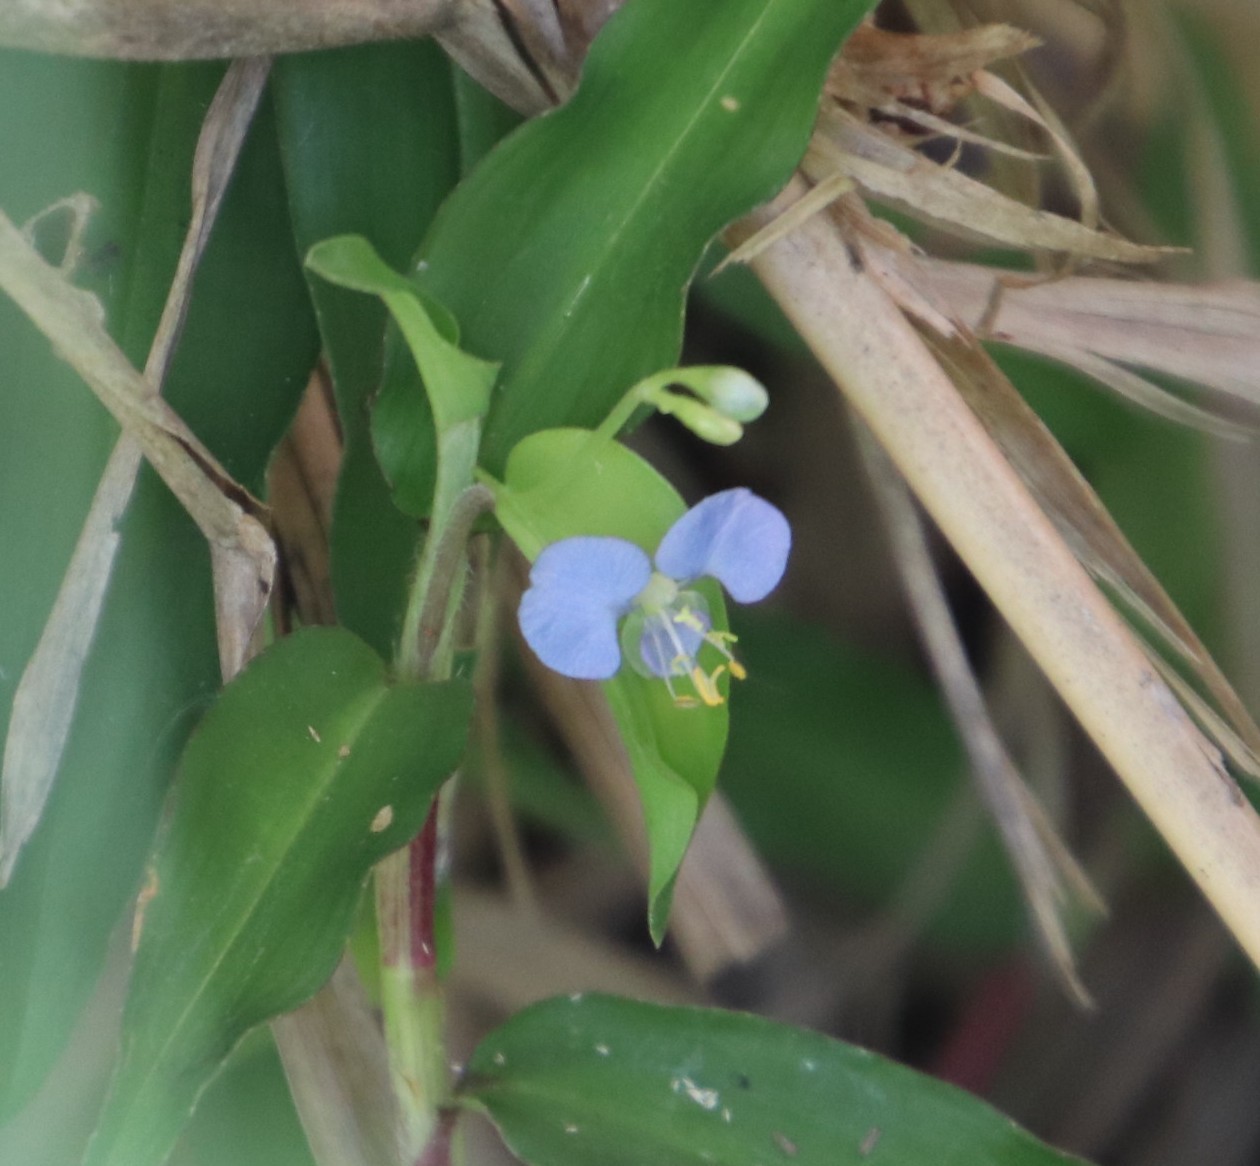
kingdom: Plantae
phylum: Tracheophyta
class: Liliopsida
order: Commelinales
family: Commelinaceae
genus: Commelina
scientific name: Commelina diffusa
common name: Climbing dayflower
